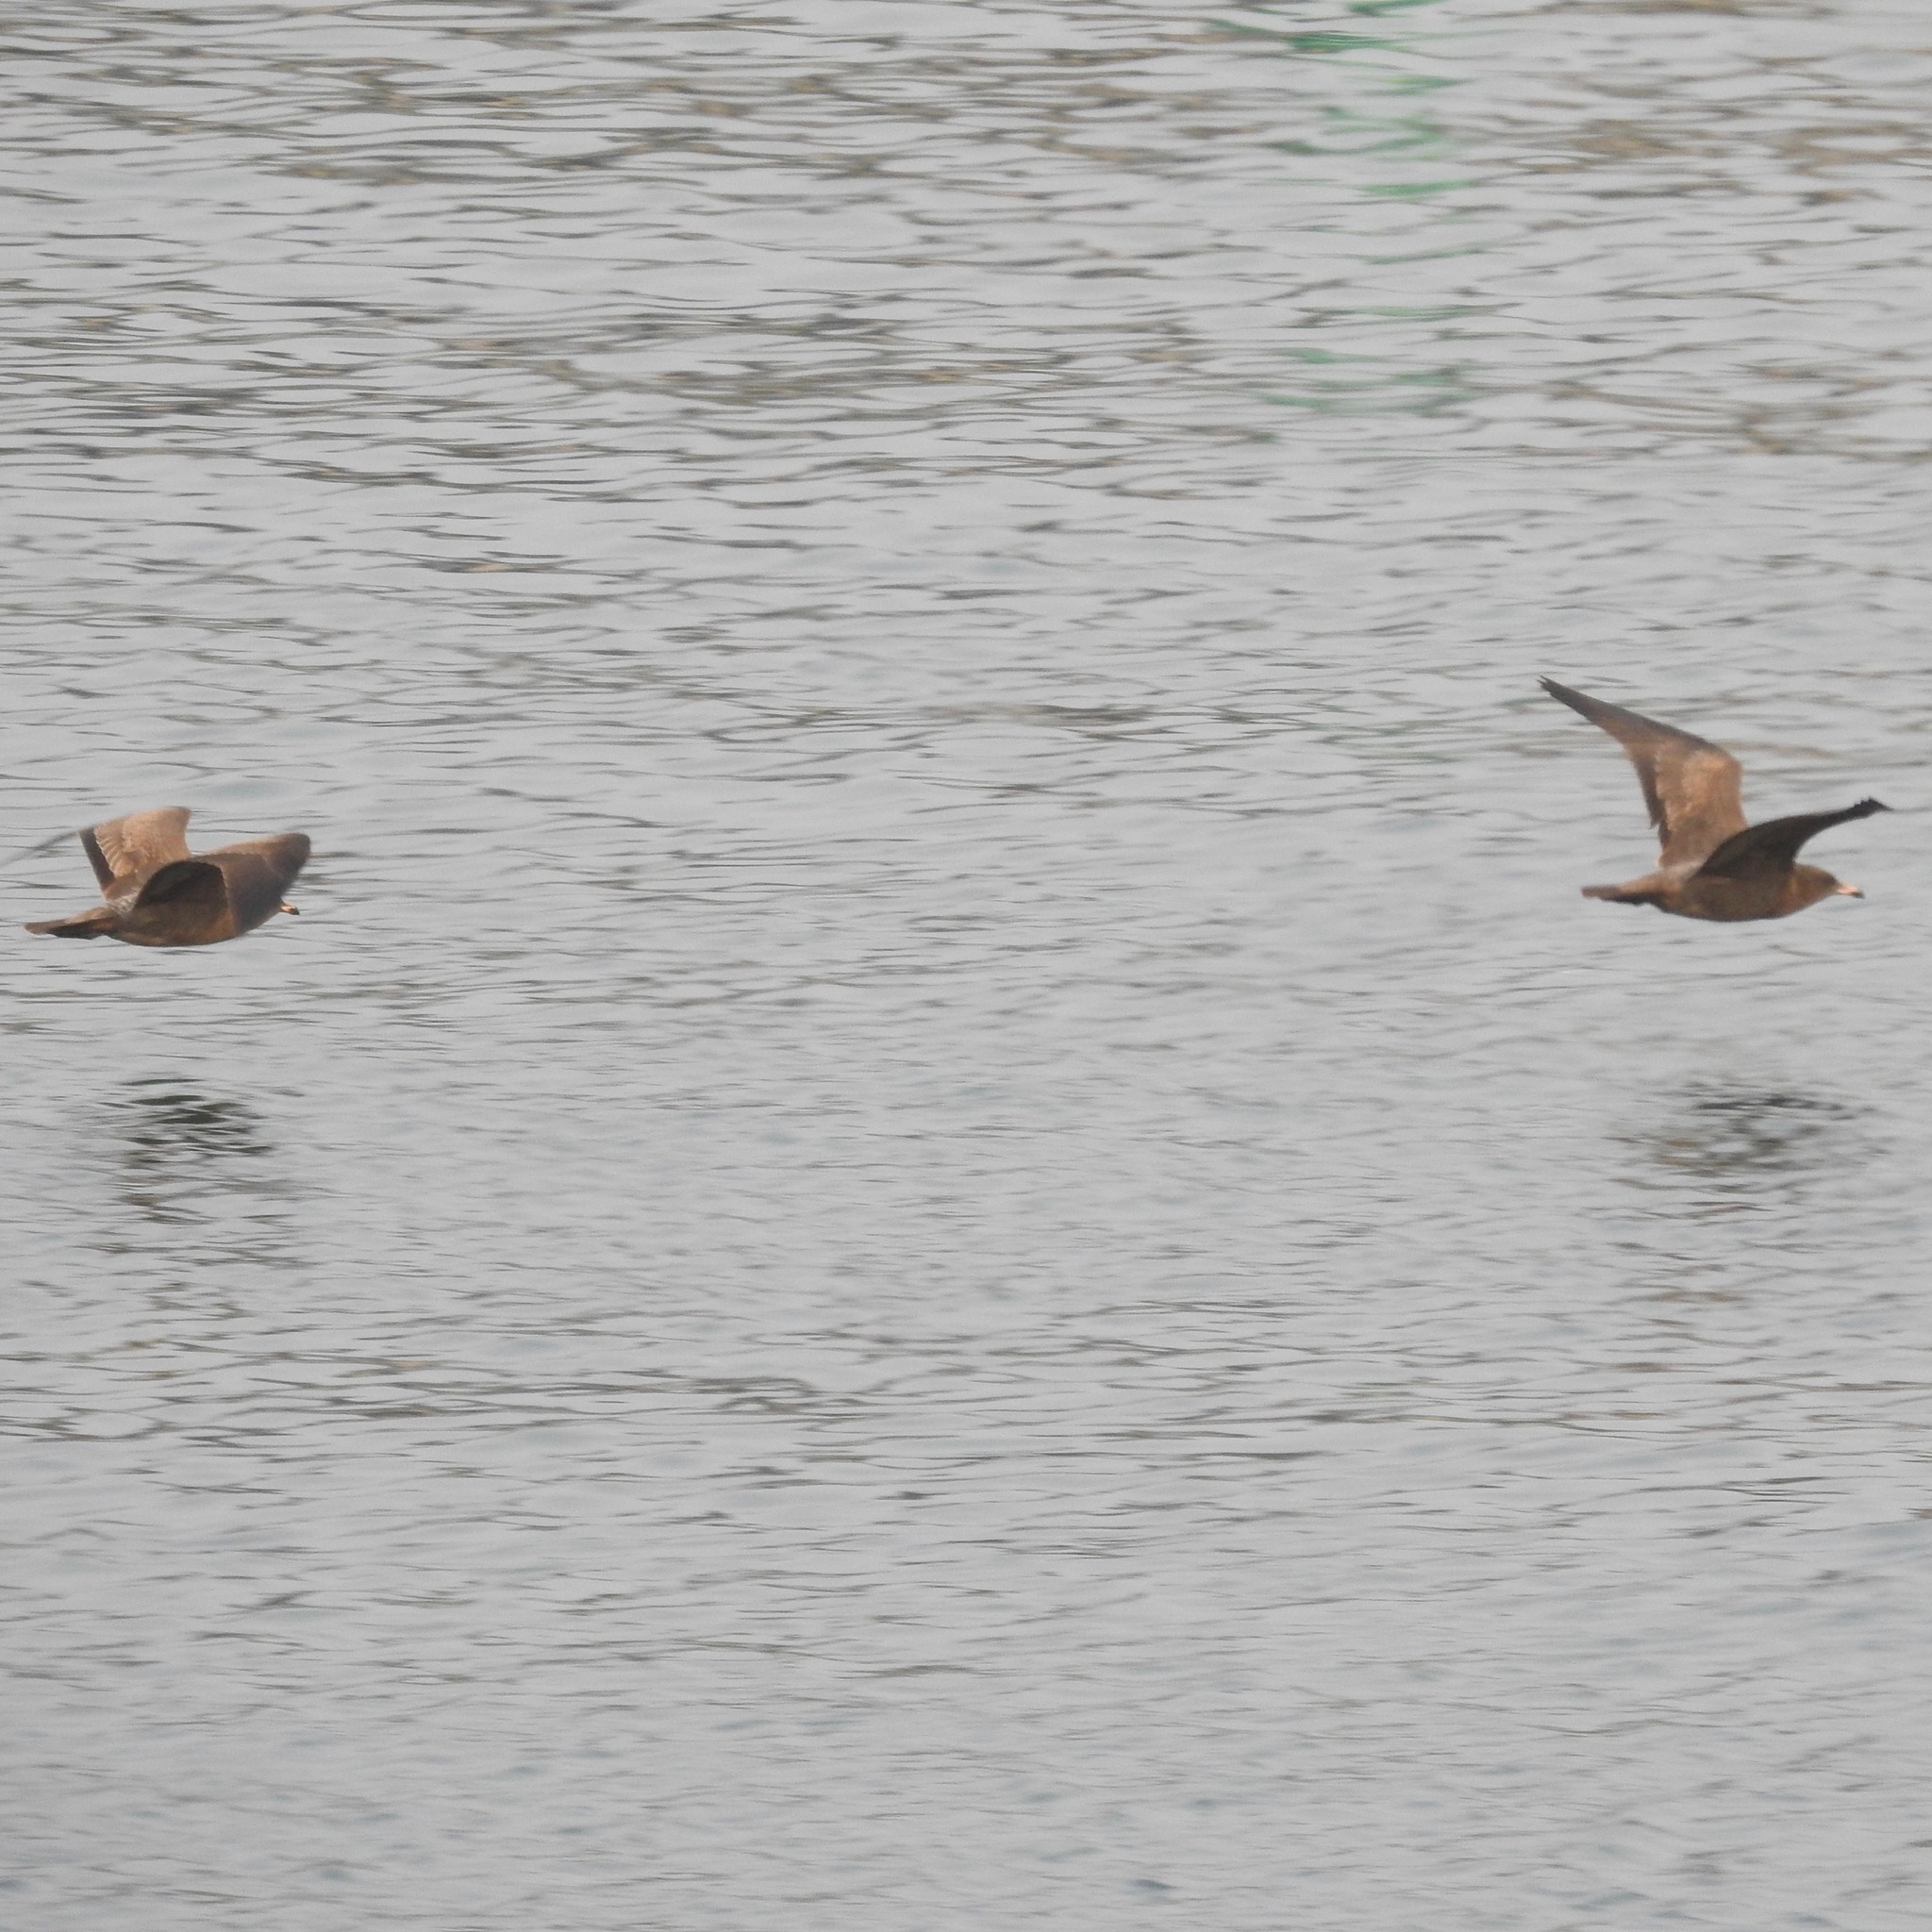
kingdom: Animalia
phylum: Chordata
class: Aves
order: Charadriiformes
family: Laridae
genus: Larus
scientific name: Larus heermanni
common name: Heermann's gull
